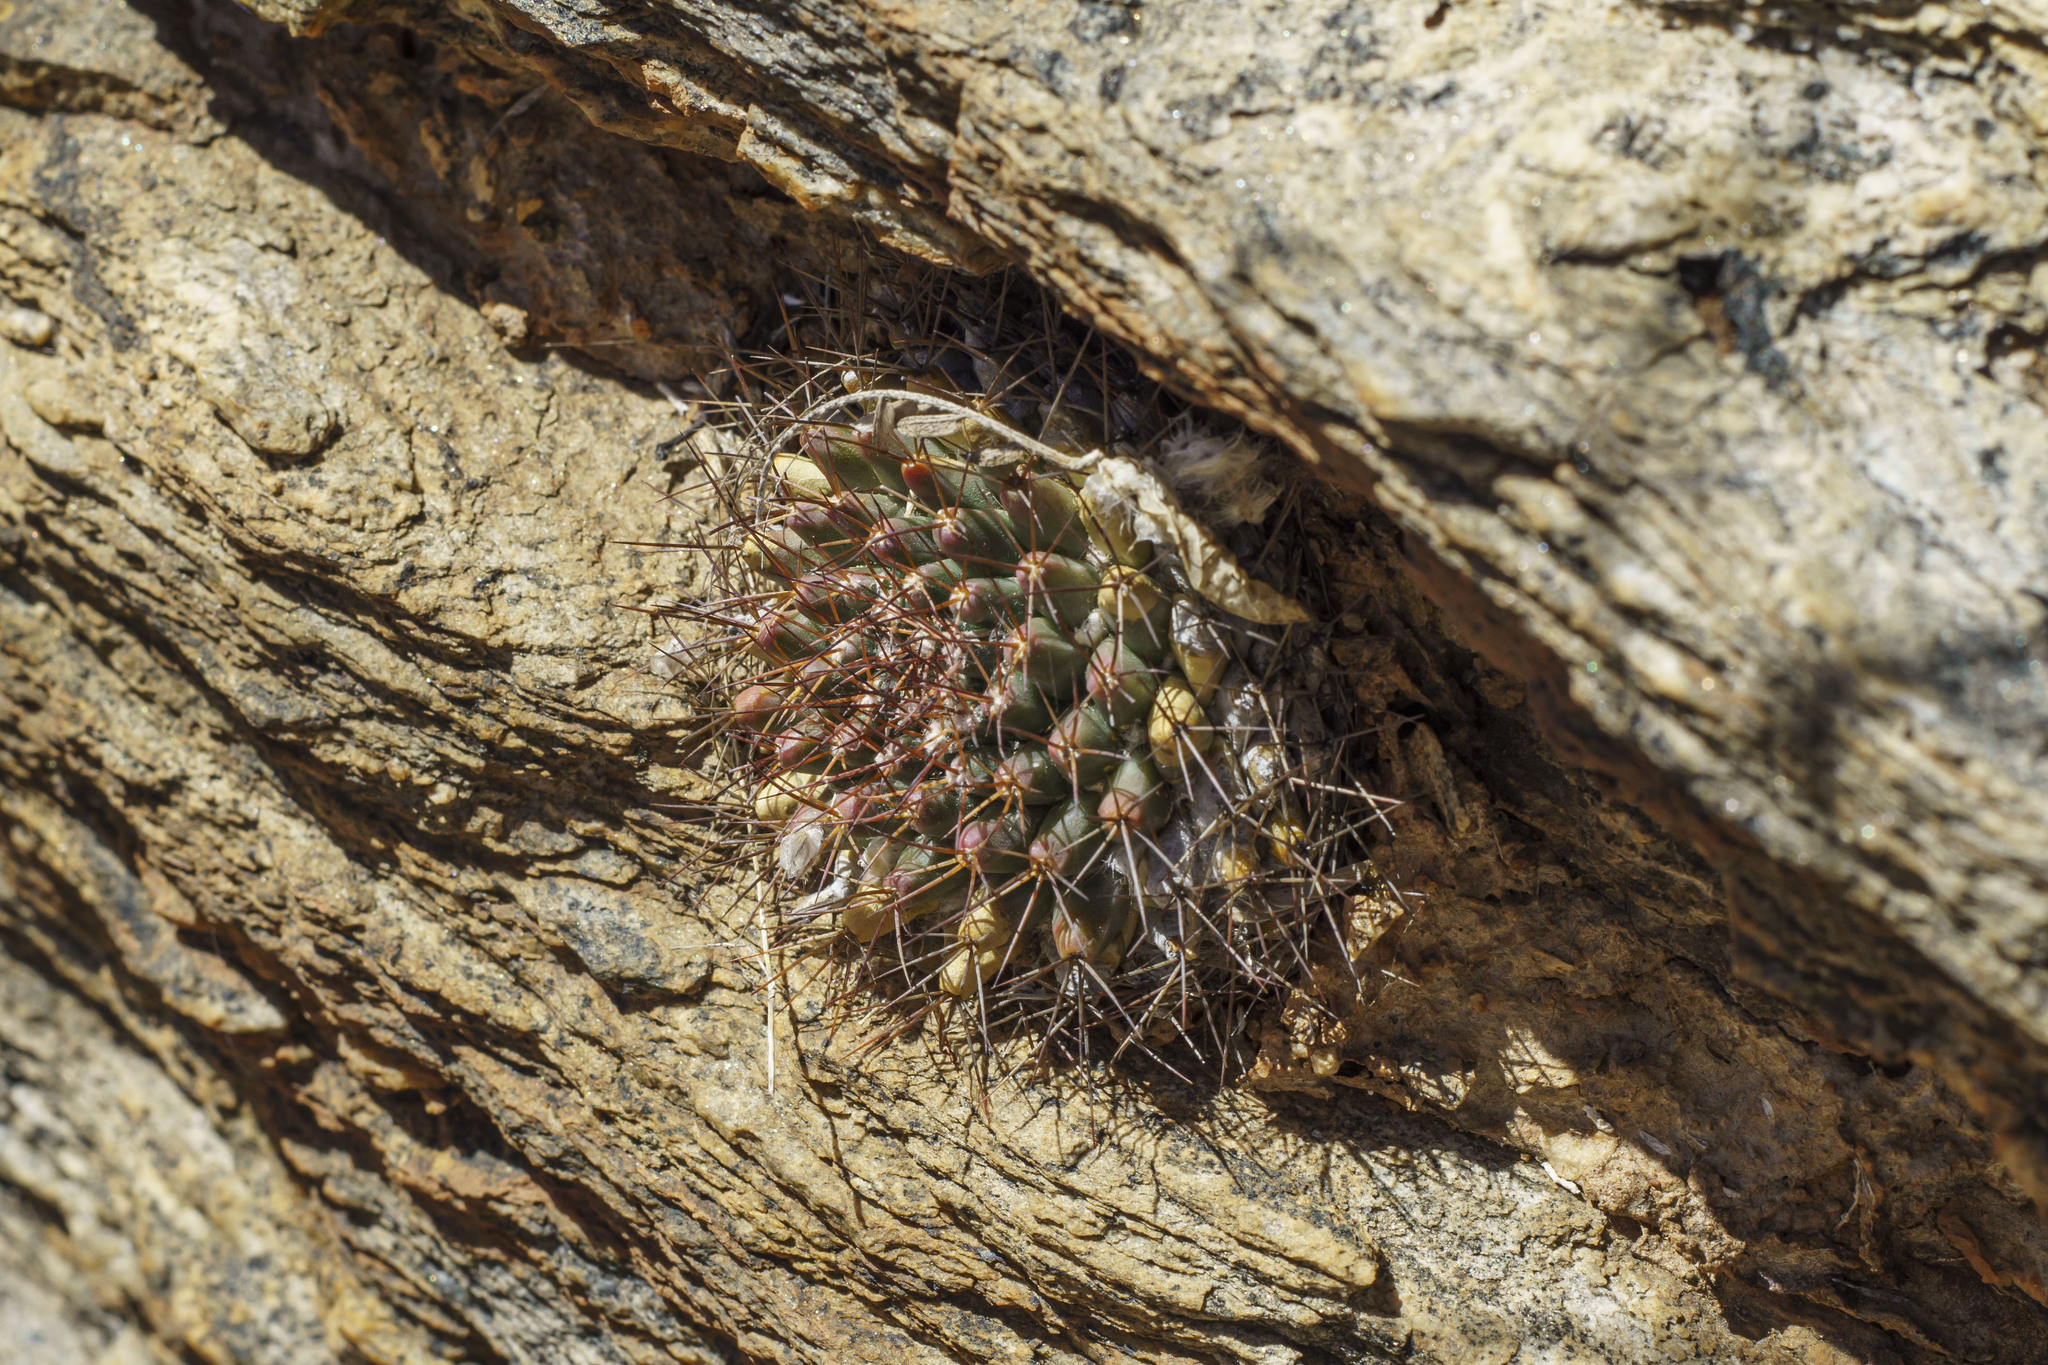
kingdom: Plantae
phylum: Tracheophyta
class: Magnoliopsida
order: Caryophyllales
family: Cactaceae
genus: Mammillaria
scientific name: Mammillaria petrophila
